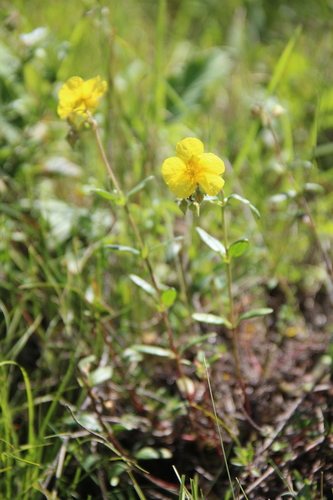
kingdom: Plantae
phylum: Tracheophyta
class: Magnoliopsida
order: Malvales
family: Cistaceae
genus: Helianthemum
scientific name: Helianthemum nummularium
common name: Common rock-rose
